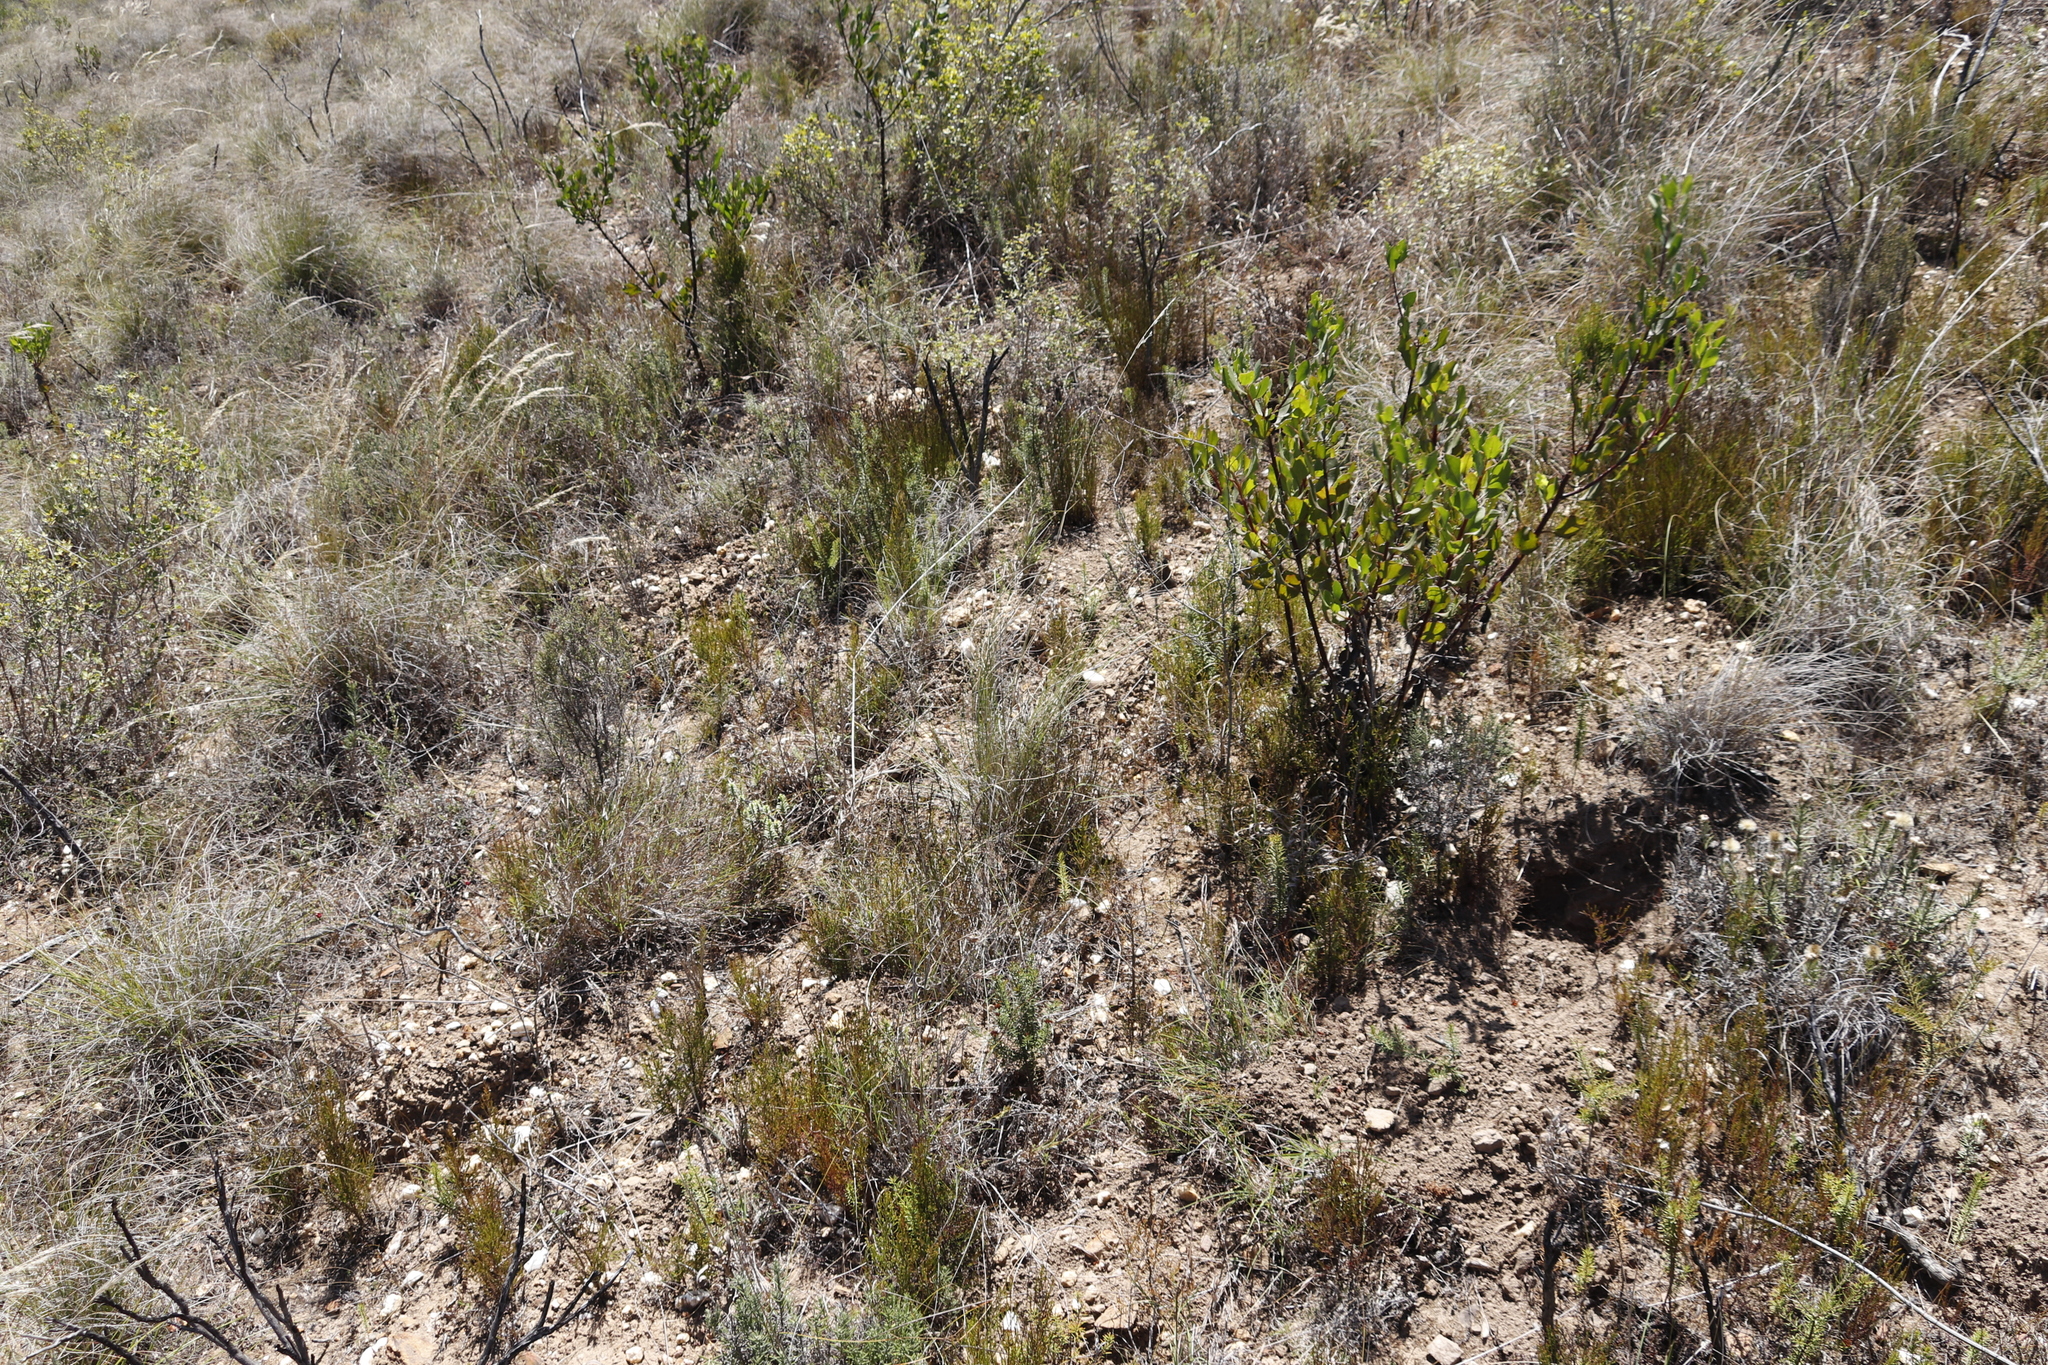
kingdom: Plantae
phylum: Tracheophyta
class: Magnoliopsida
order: Asterales
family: Asteraceae
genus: Osteospermum
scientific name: Osteospermum moniliferum
